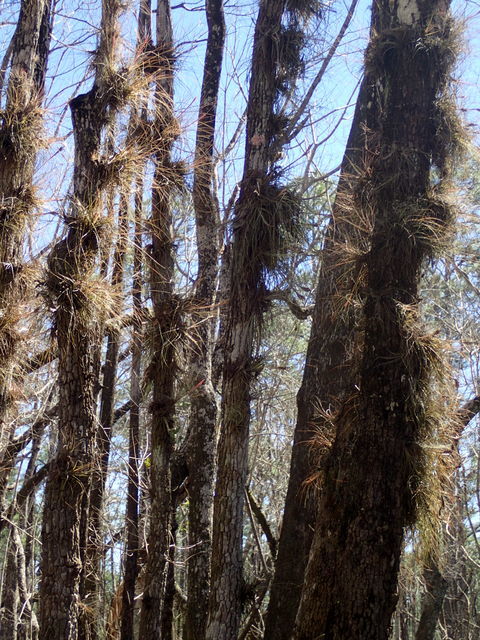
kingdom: Plantae
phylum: Tracheophyta
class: Liliopsida
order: Poales
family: Bromeliaceae
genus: Tillandsia
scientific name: Tillandsia bartramii
